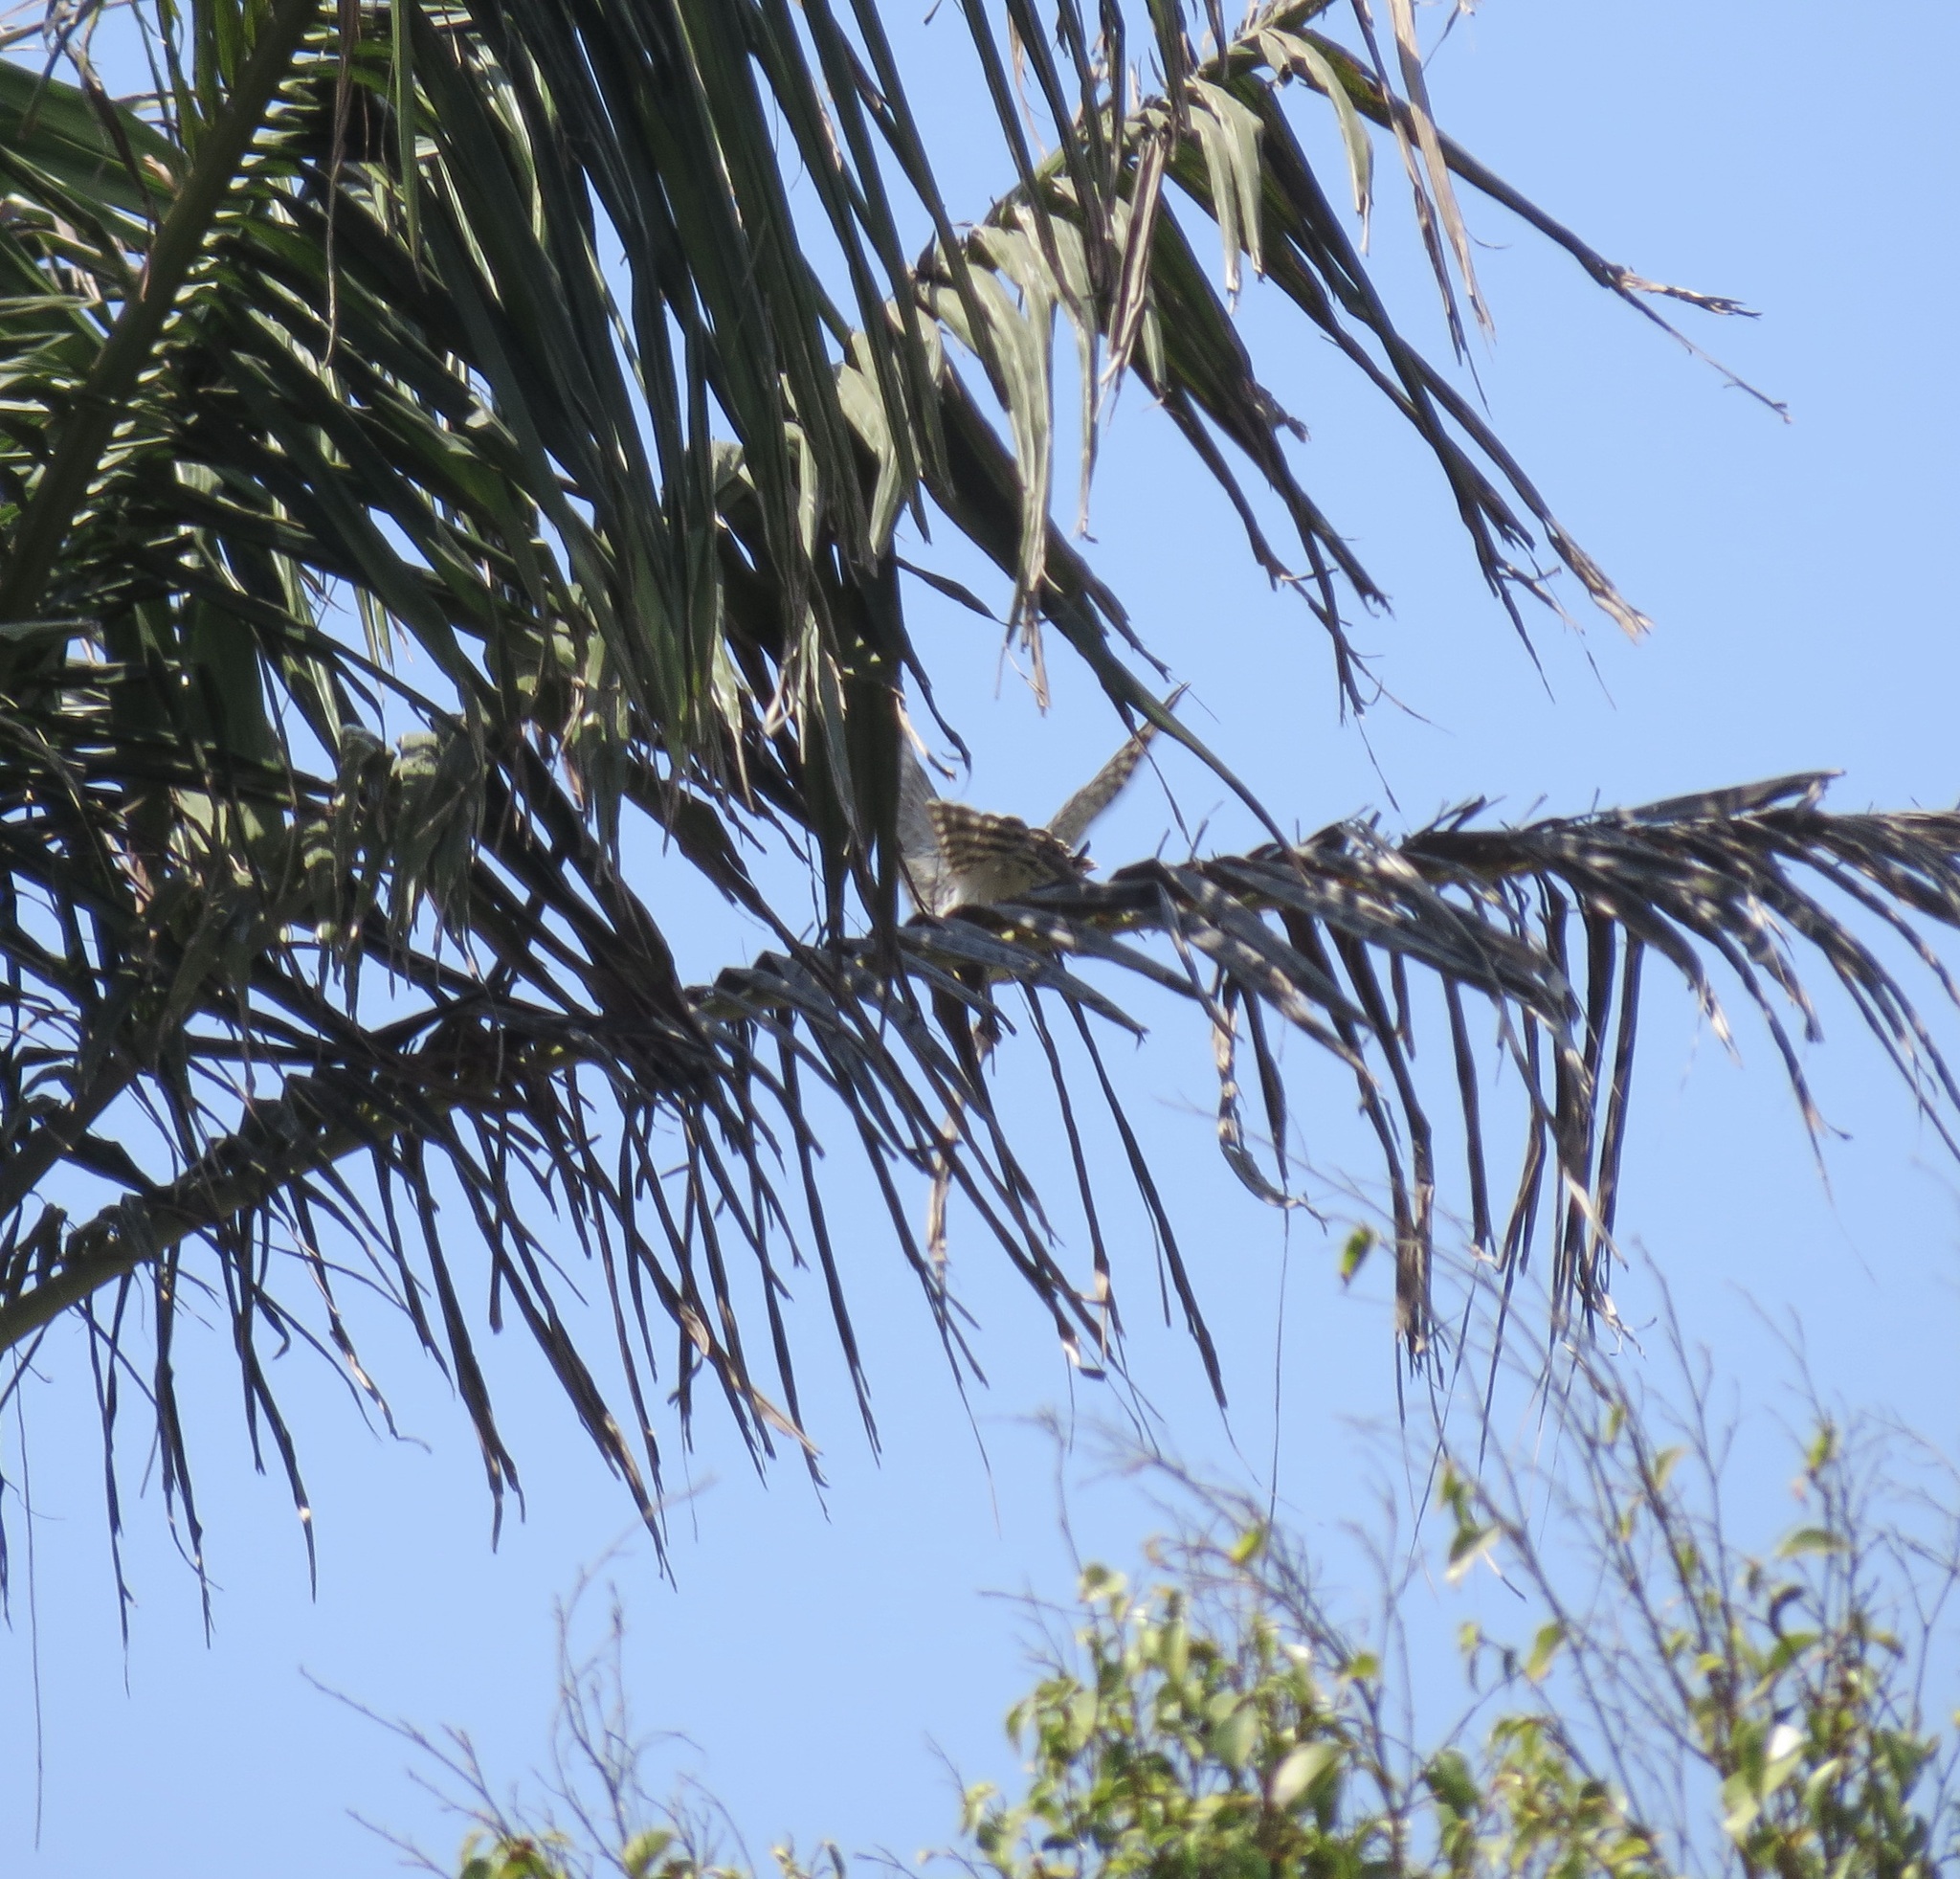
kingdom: Animalia
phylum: Chordata
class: Aves
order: Accipitriformes
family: Accipitridae
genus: Accipiter
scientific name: Accipiter cooperii
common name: Cooper's hawk
